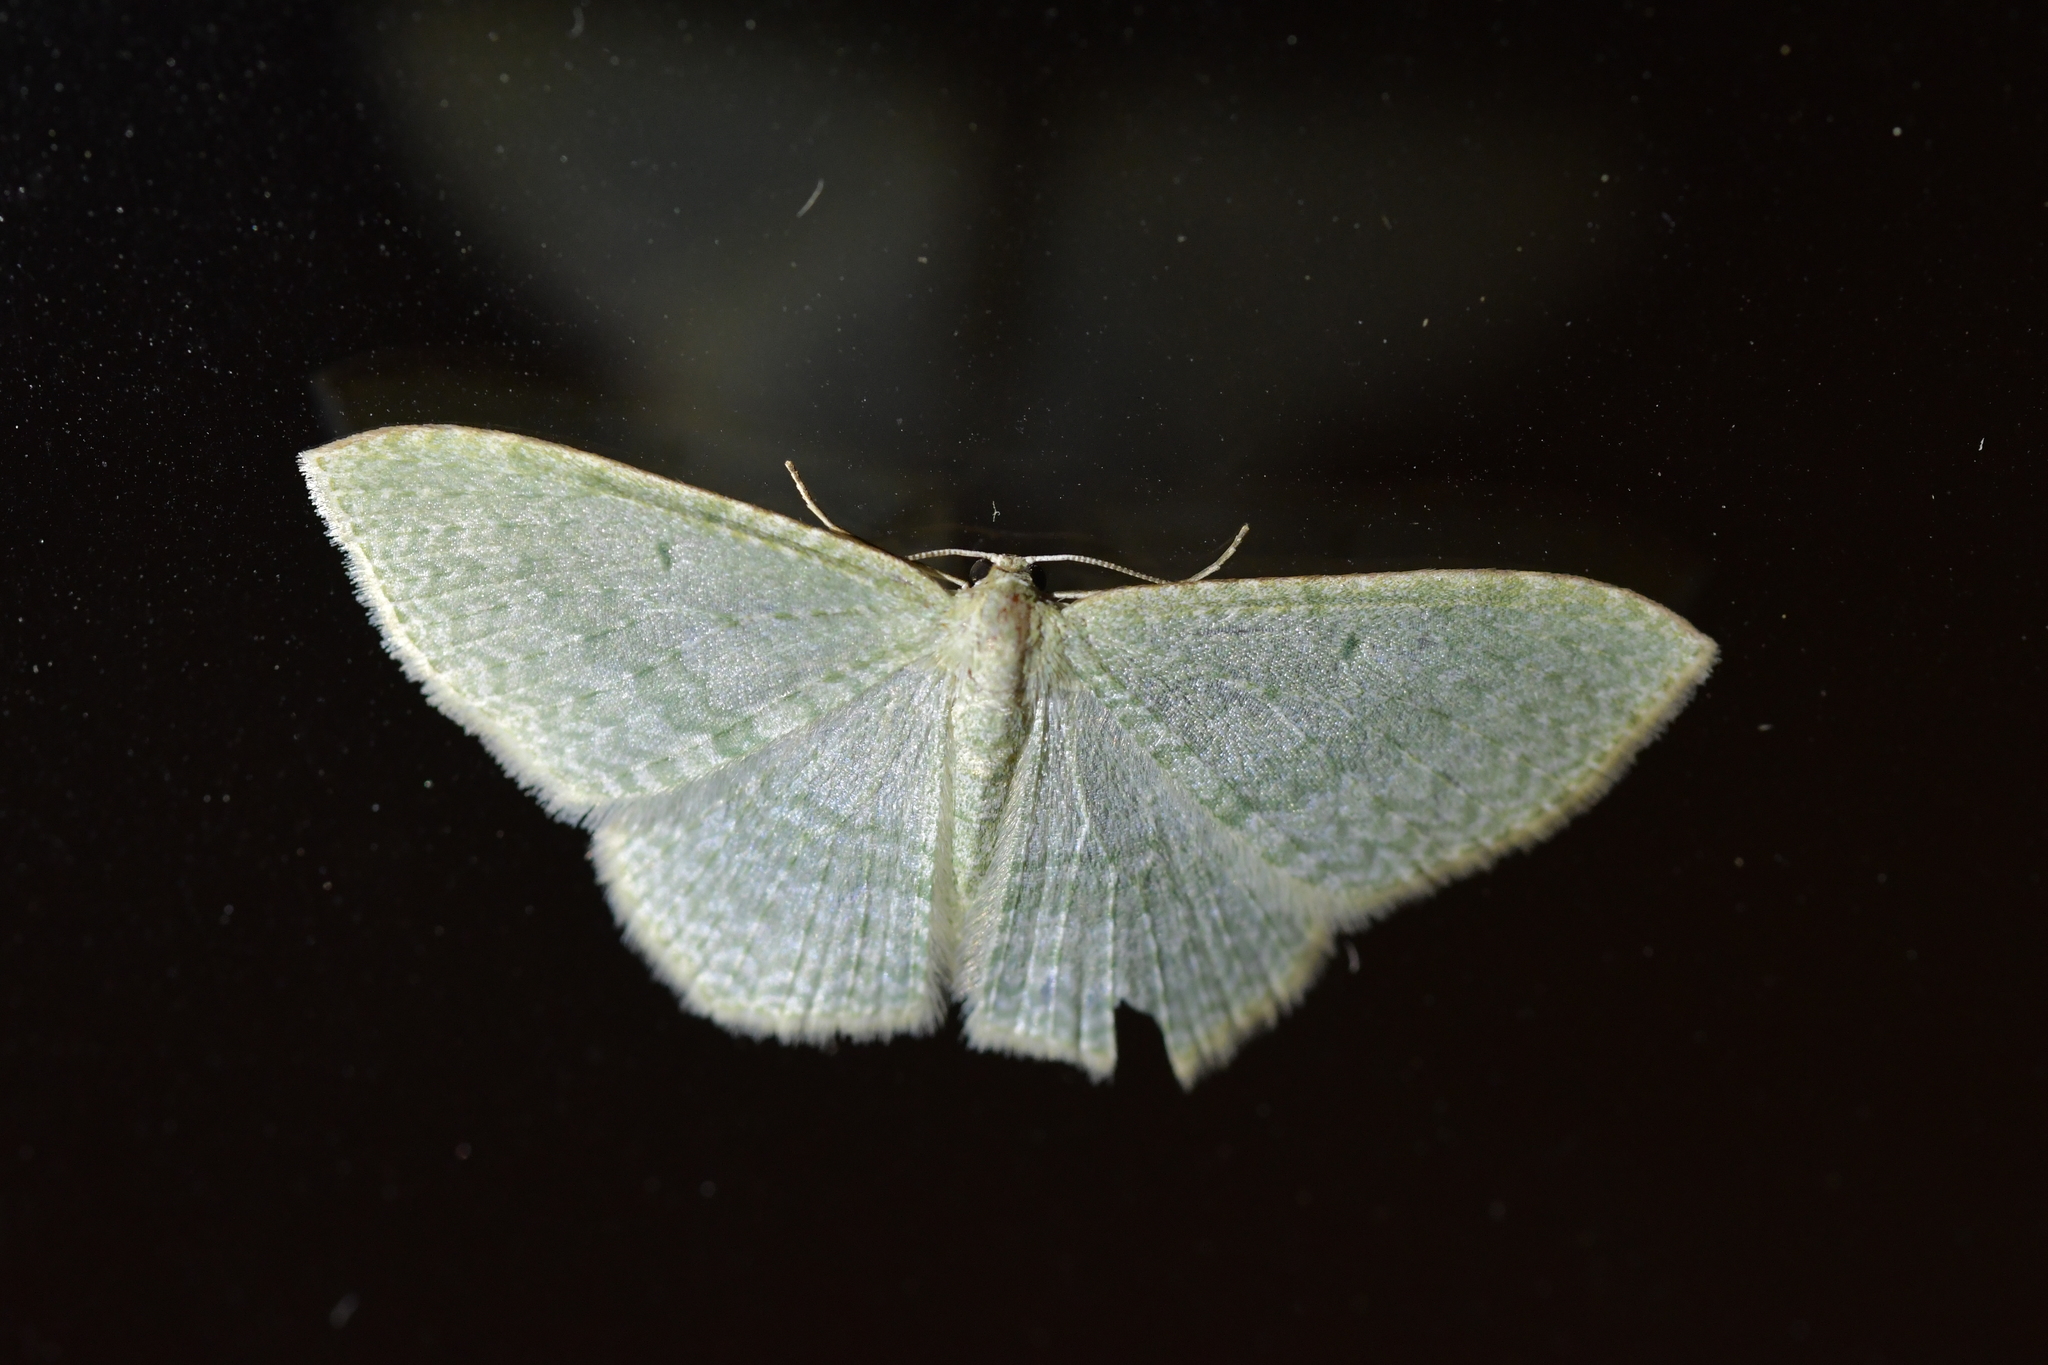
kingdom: Animalia
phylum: Arthropoda
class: Insecta
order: Lepidoptera
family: Geometridae
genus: Poecilasthena
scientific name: Poecilasthena pulchraria
